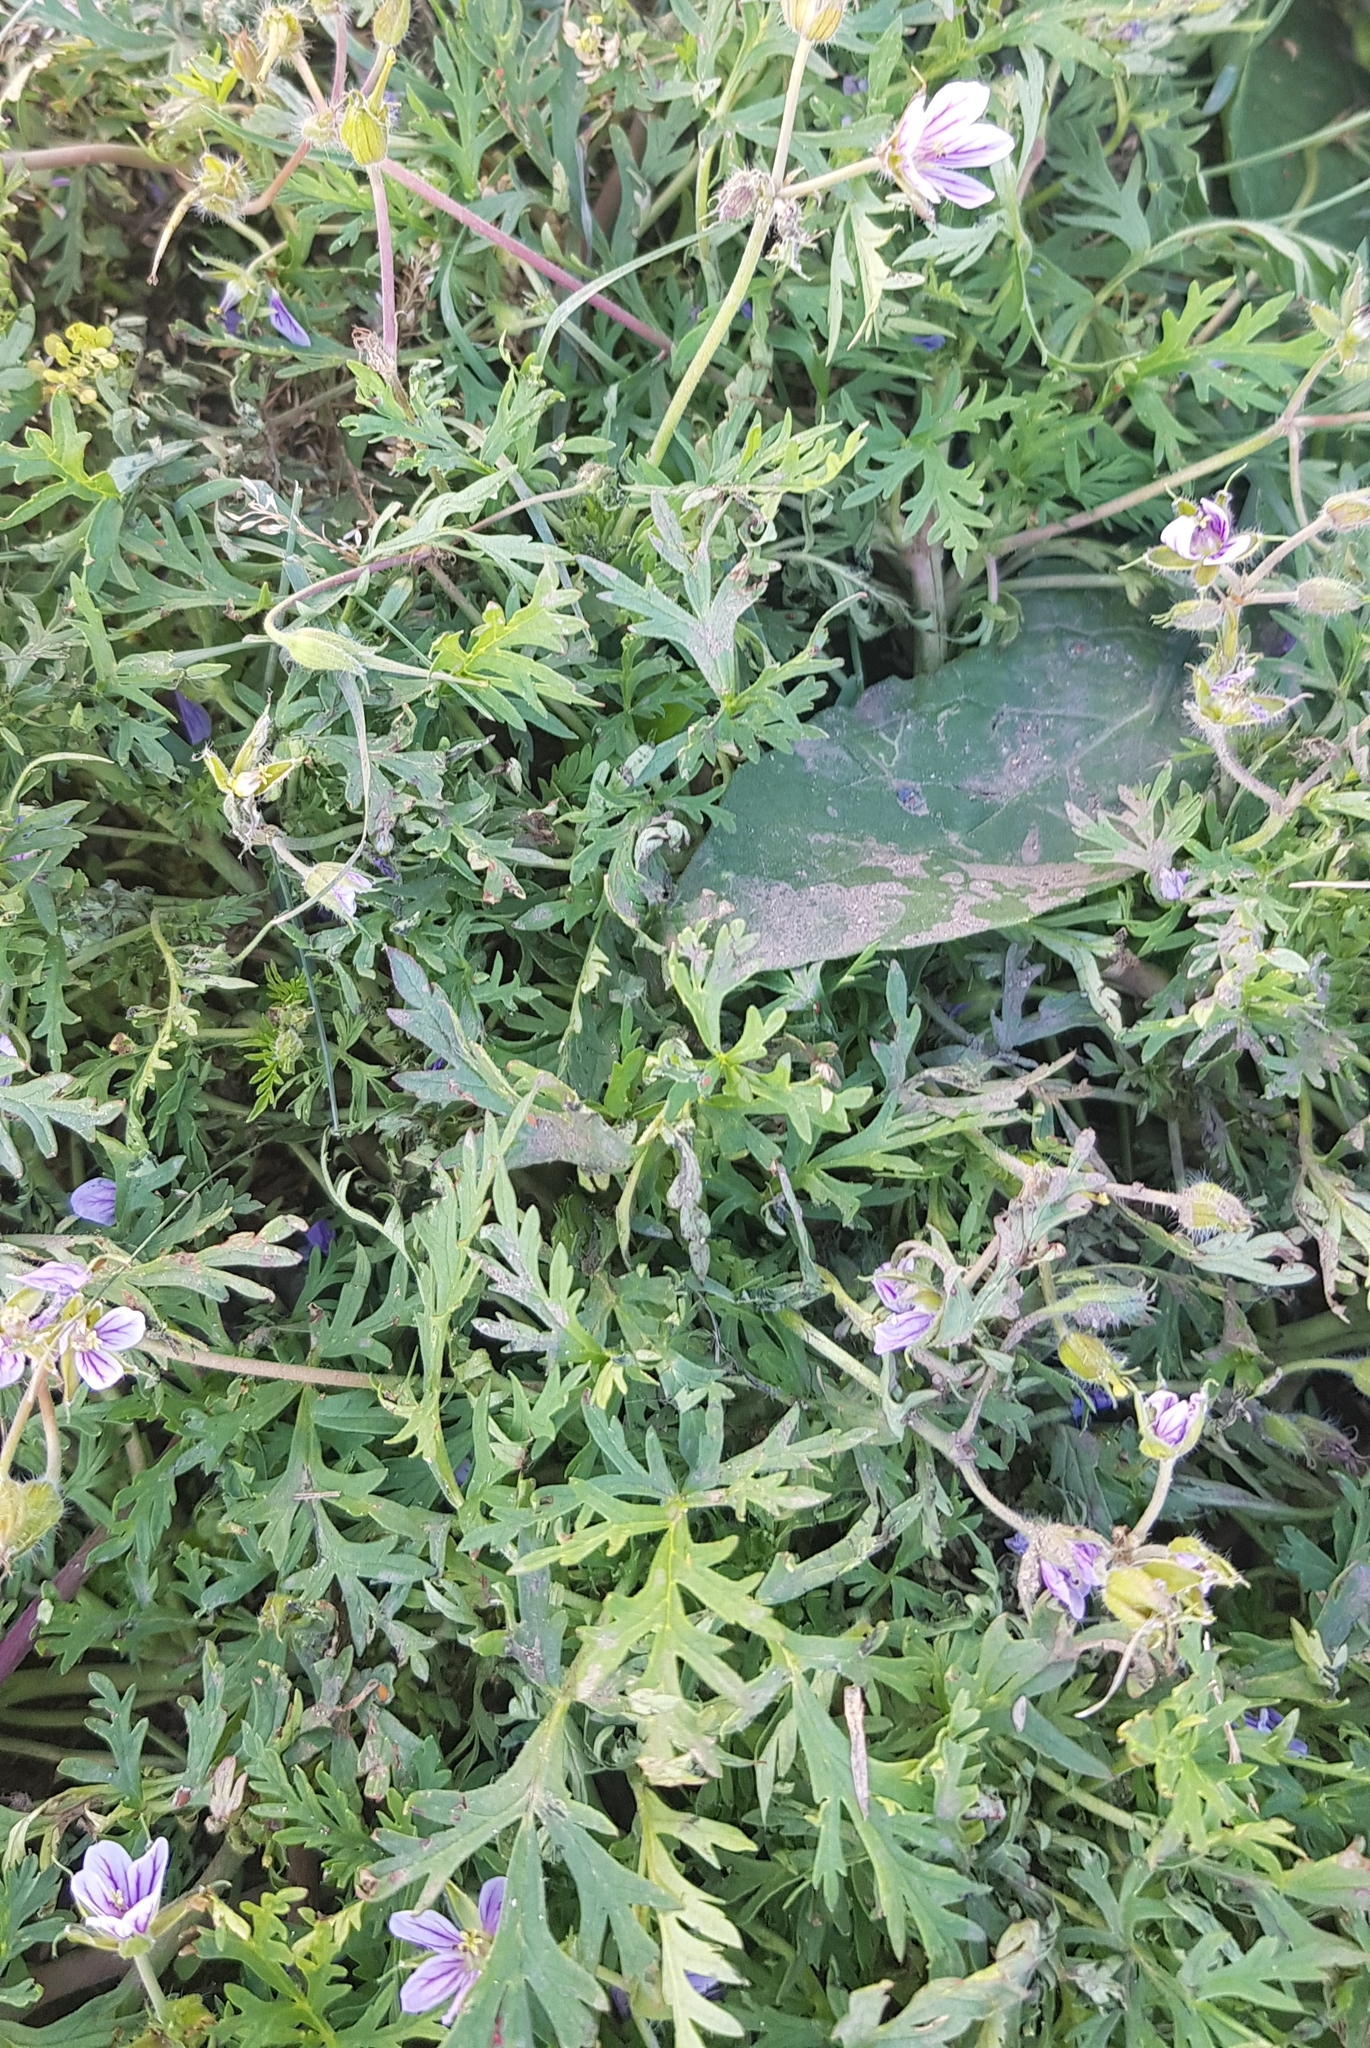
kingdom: Plantae
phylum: Tracheophyta
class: Magnoliopsida
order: Geraniales
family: Geraniaceae
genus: Erodium
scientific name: Erodium stephanianum
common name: Stephen's stork's bill
